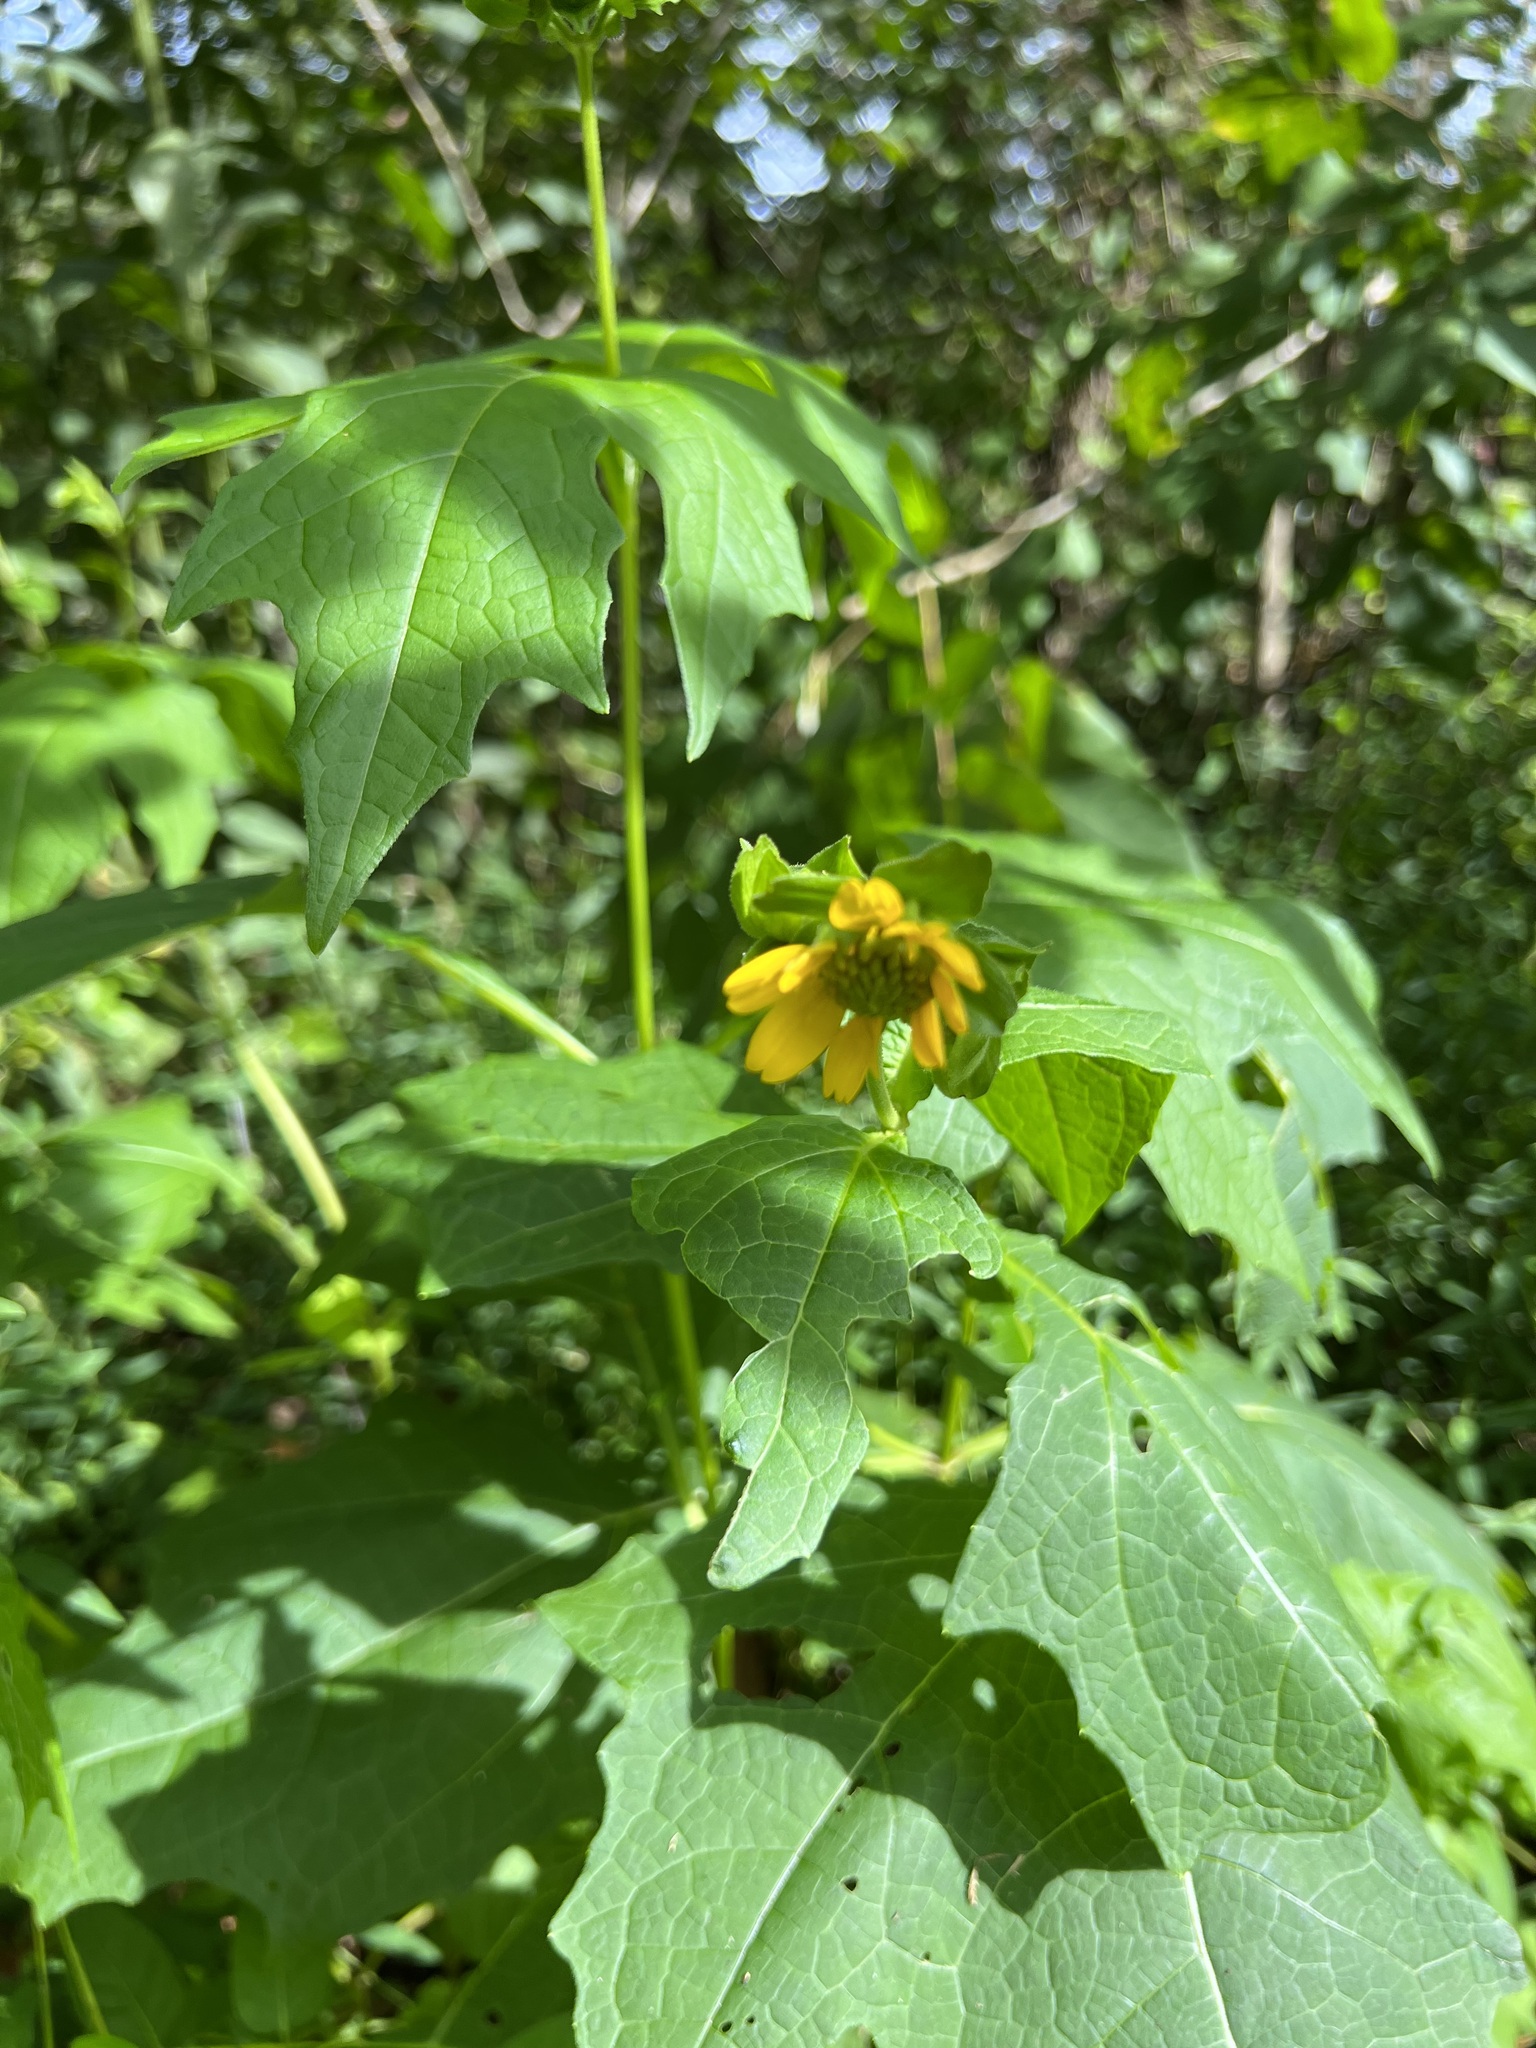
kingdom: Plantae
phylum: Tracheophyta
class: Magnoliopsida
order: Asterales
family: Asteraceae
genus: Smallanthus
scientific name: Smallanthus uvedalia
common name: Bear's-foot
